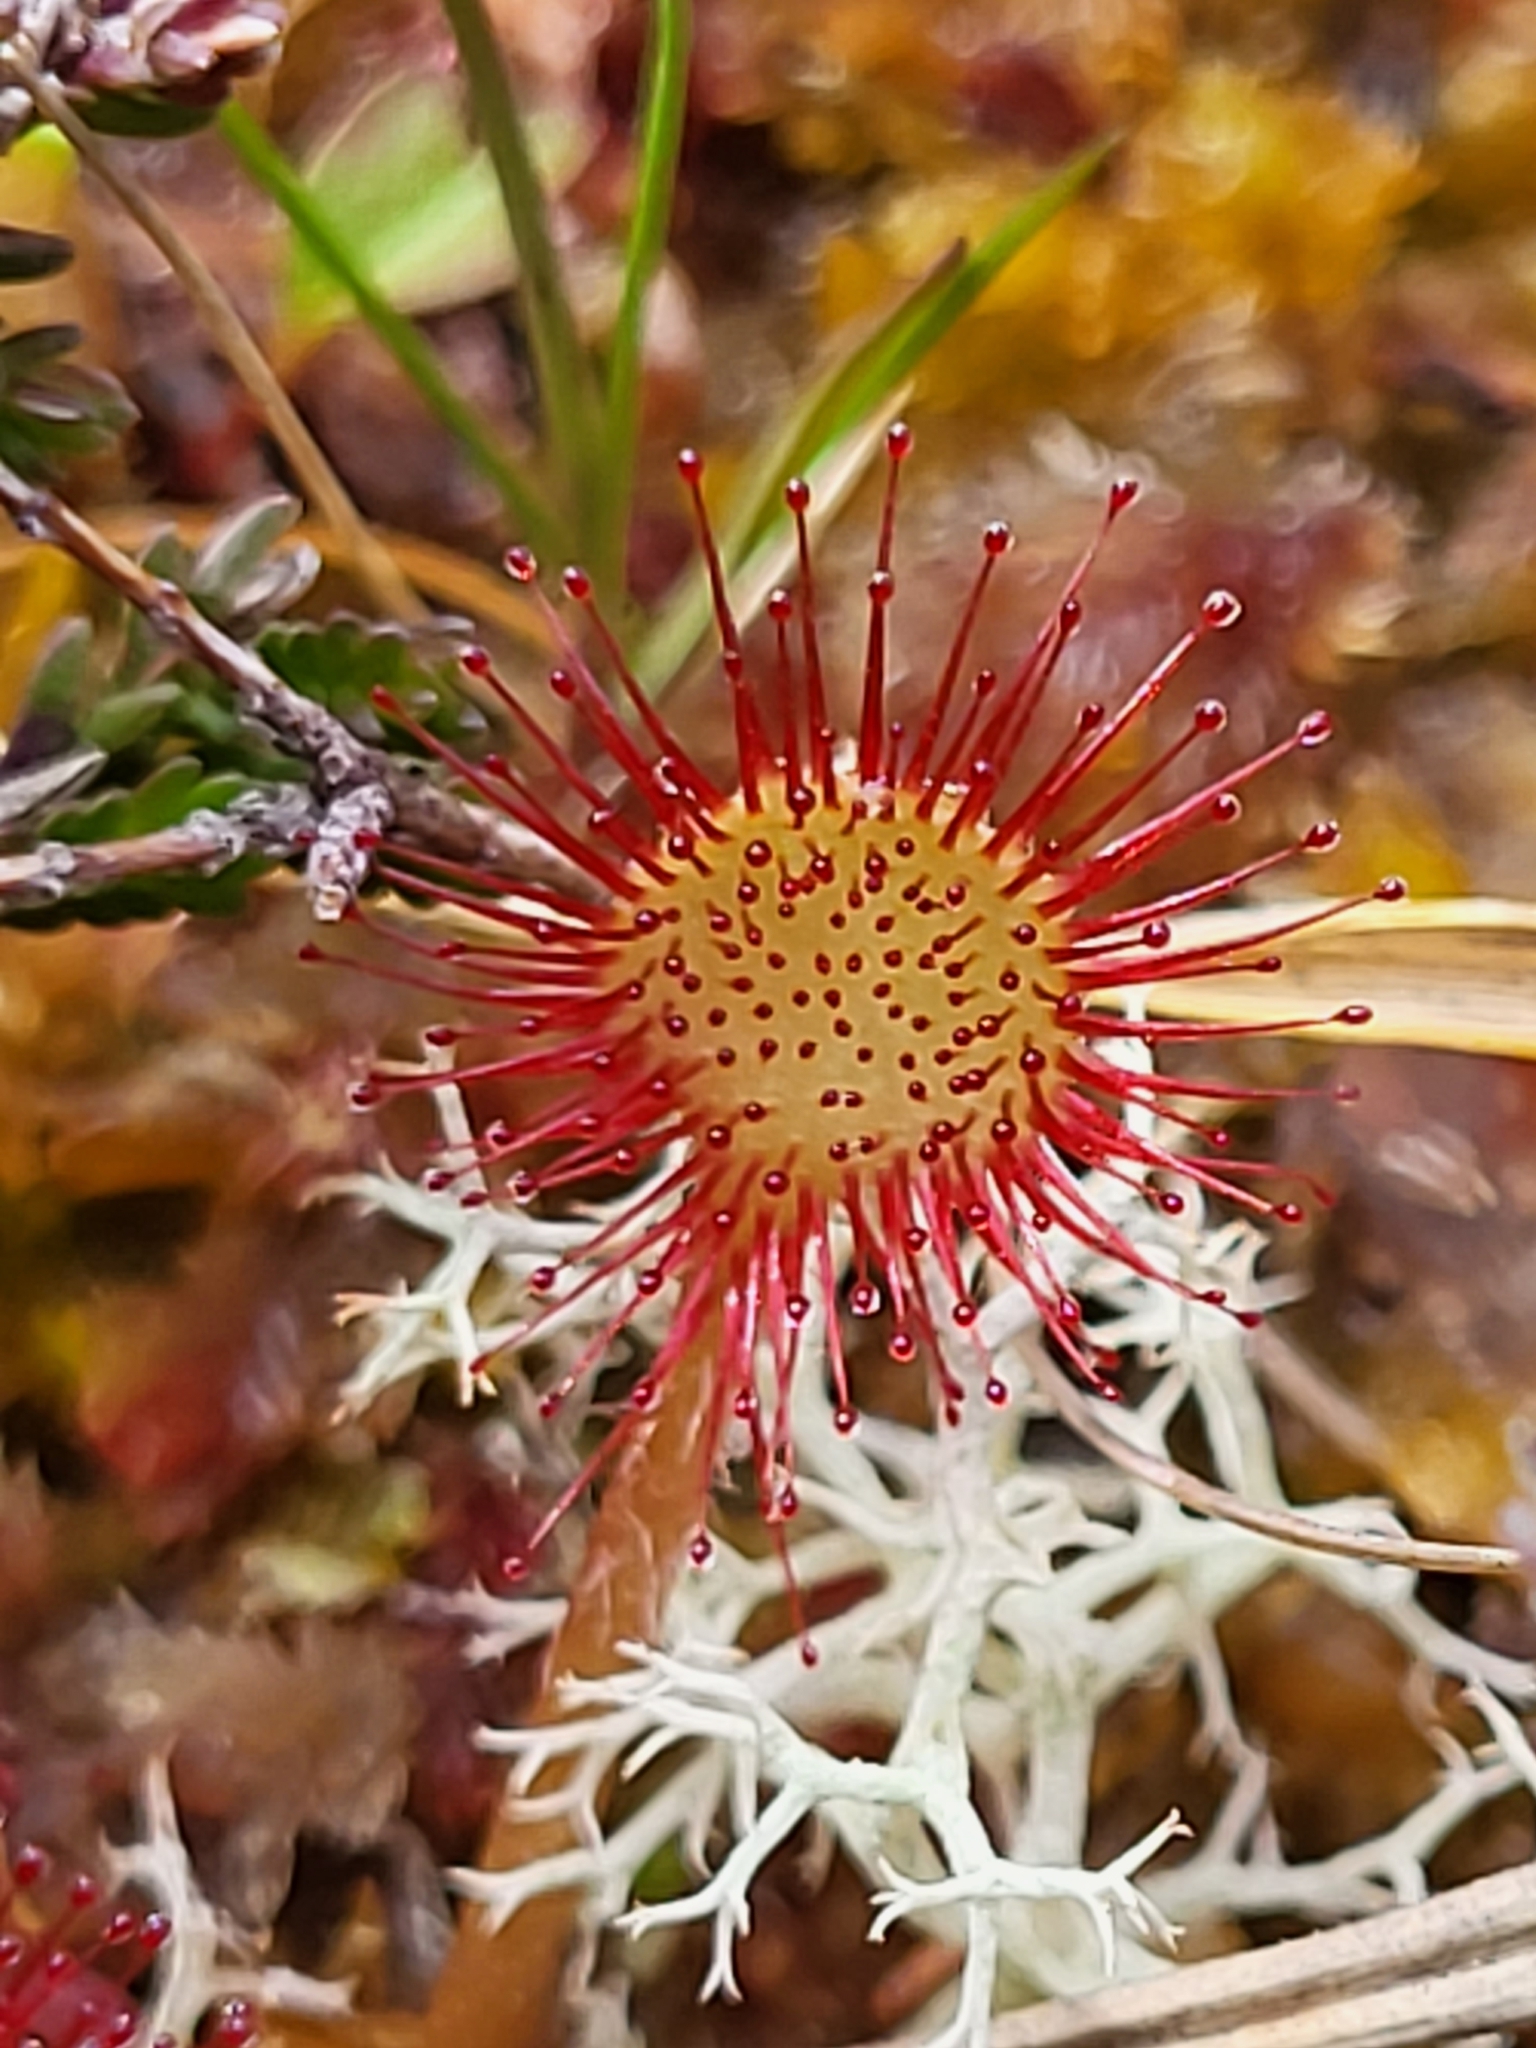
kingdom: Plantae
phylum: Tracheophyta
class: Magnoliopsida
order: Caryophyllales
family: Droseraceae
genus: Drosera
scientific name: Drosera rotundifolia
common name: Round-leaved sundew
